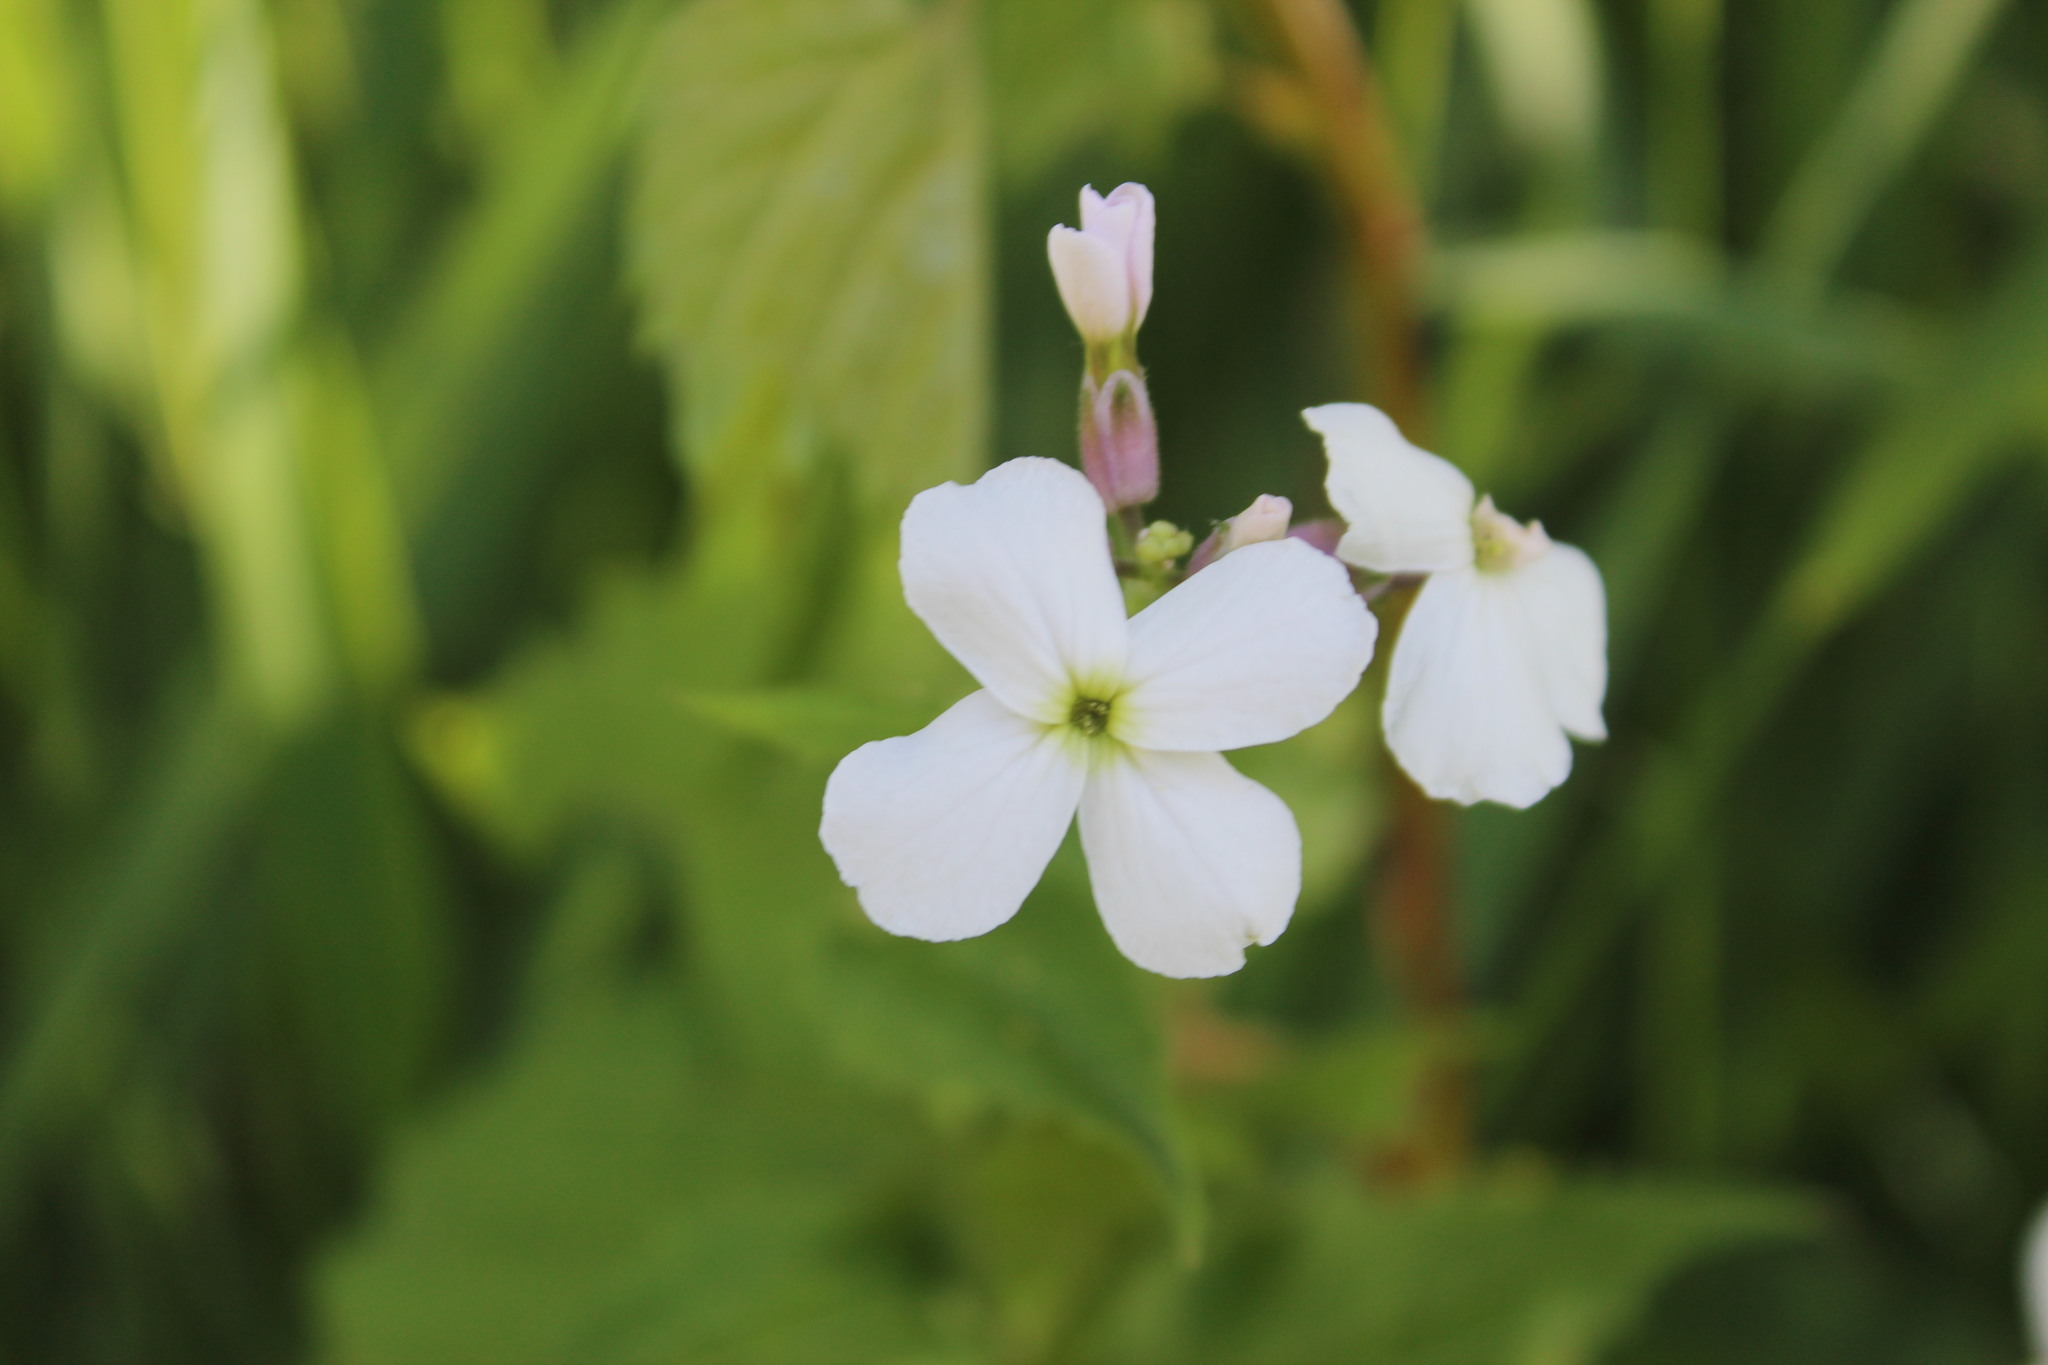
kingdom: Plantae
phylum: Tracheophyta
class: Magnoliopsida
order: Brassicales
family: Brassicaceae
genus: Hesperis
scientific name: Hesperis matronalis
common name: Dame's-violet
